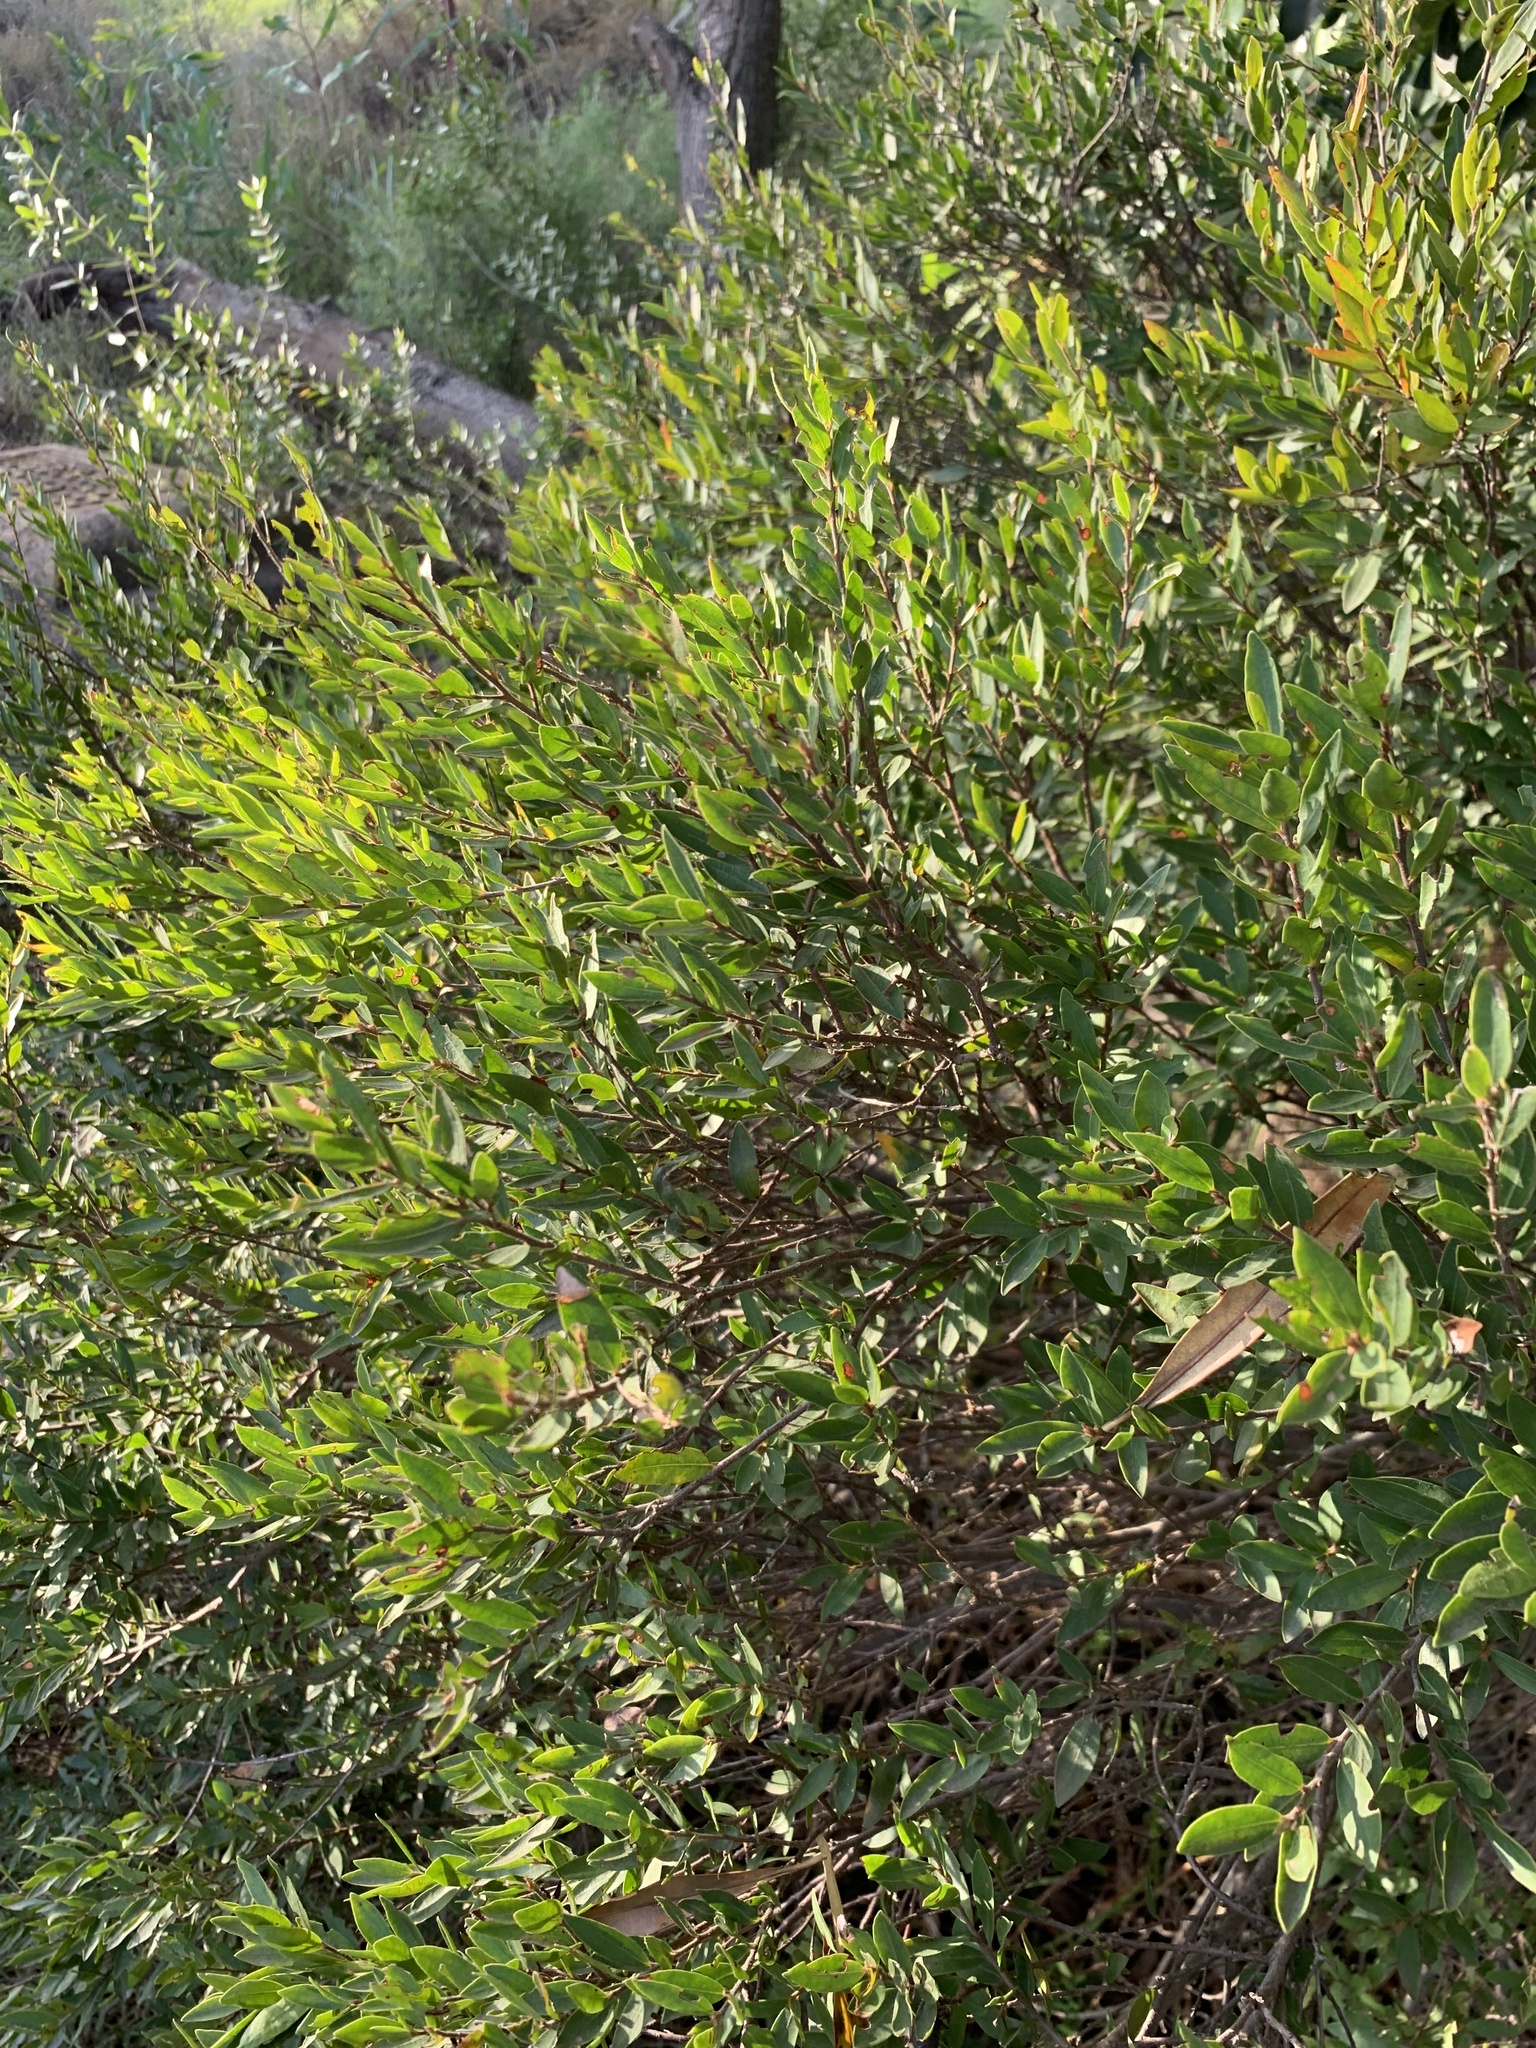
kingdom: Plantae
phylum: Tracheophyta
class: Magnoliopsida
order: Ericales
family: Ebenaceae
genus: Diospyros
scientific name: Diospyros glabra
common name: Fynbos star apple
